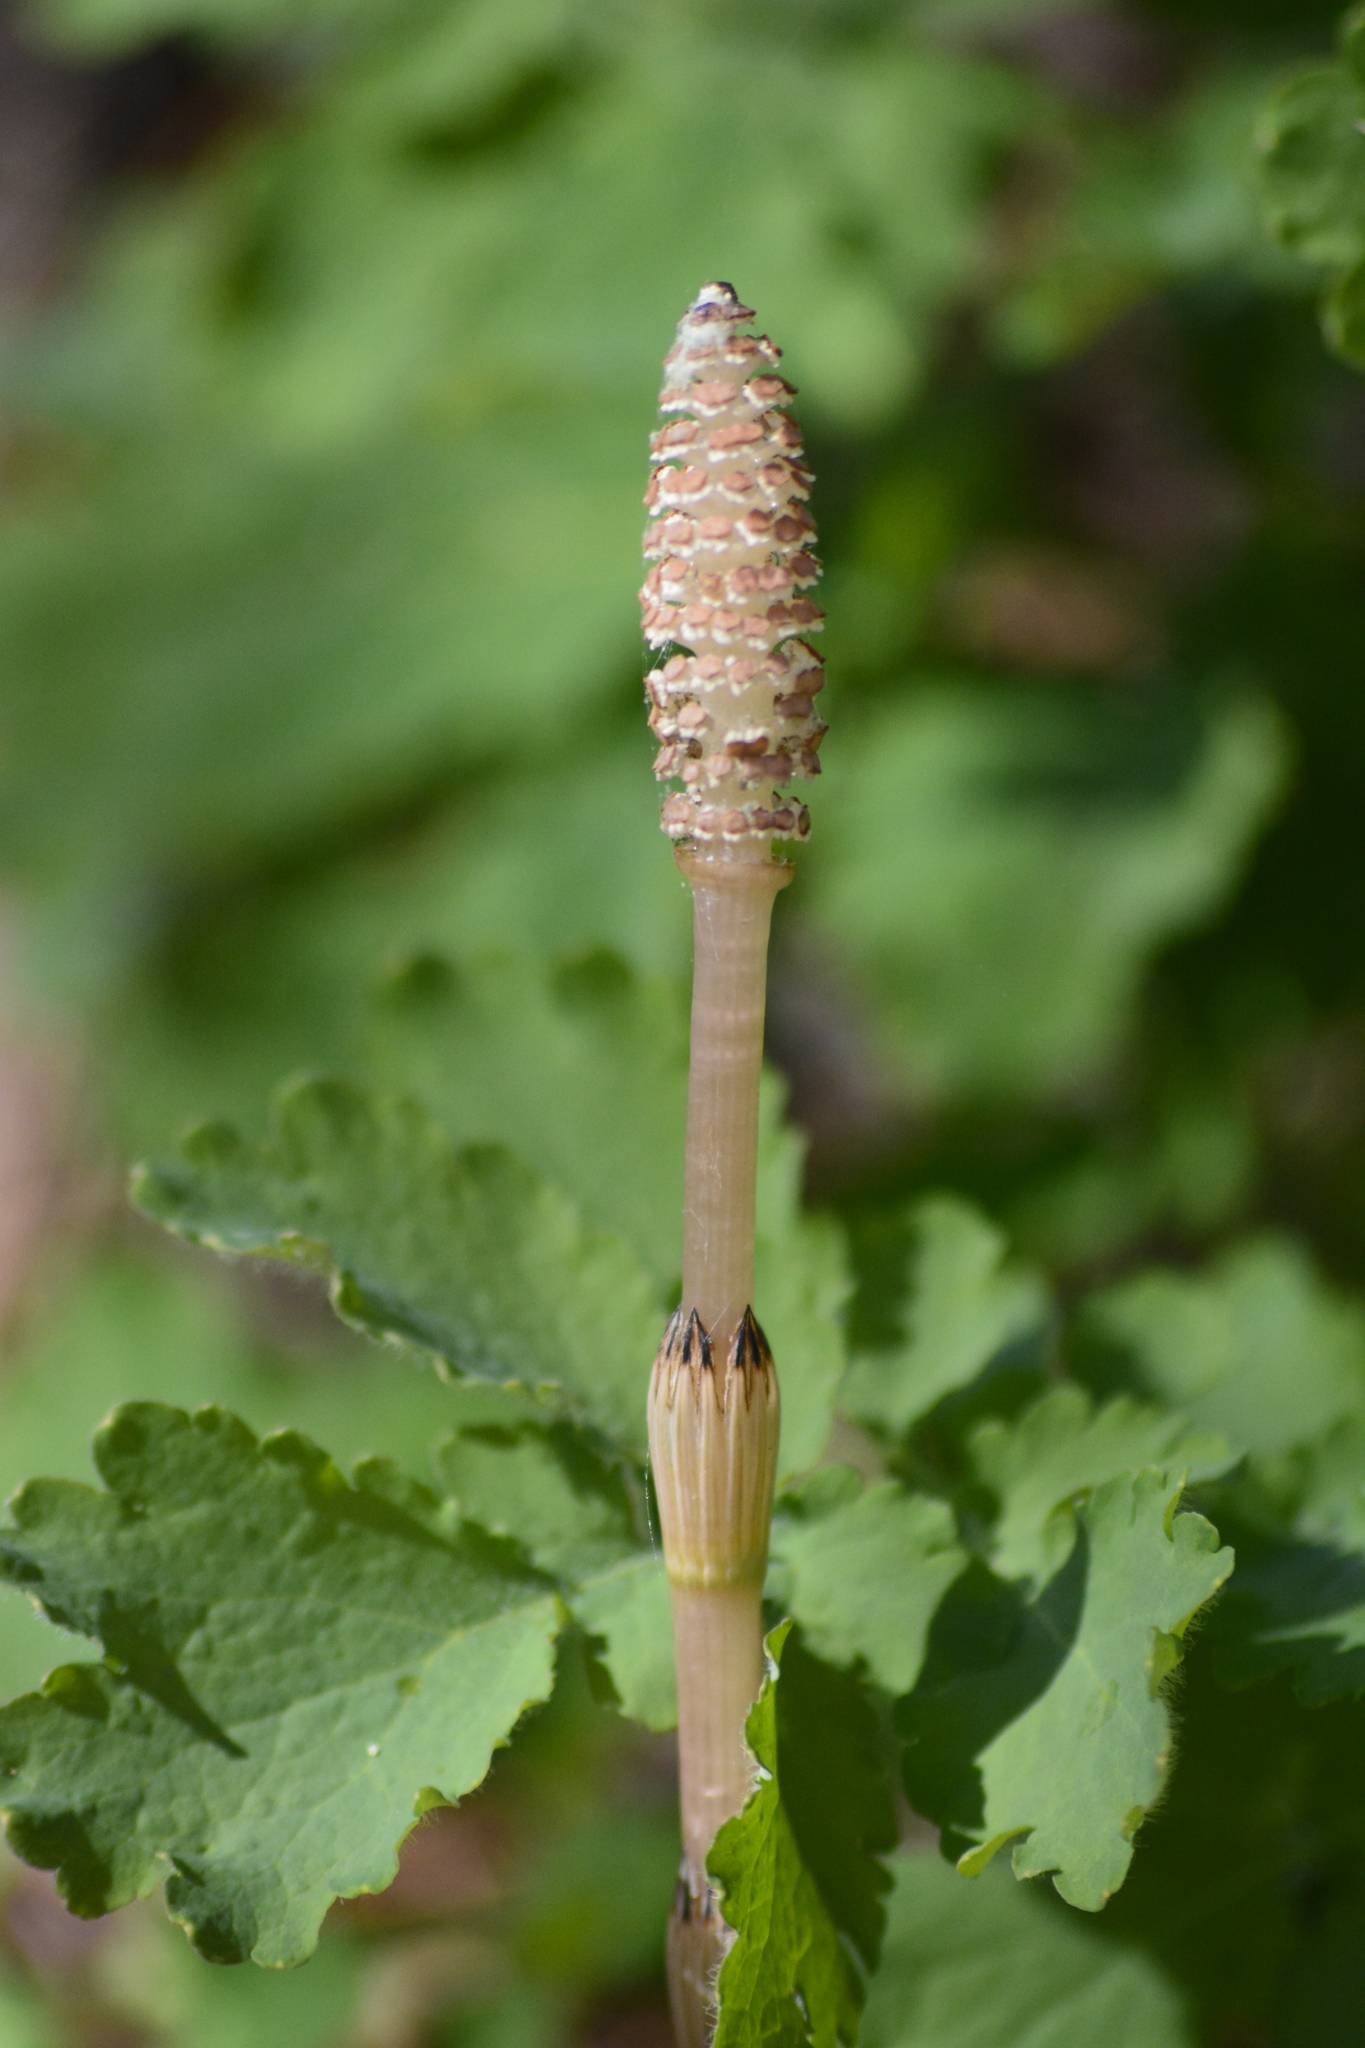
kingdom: Plantae
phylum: Tracheophyta
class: Polypodiopsida
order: Equisetales
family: Equisetaceae
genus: Equisetum
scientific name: Equisetum arvense
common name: Field horsetail
